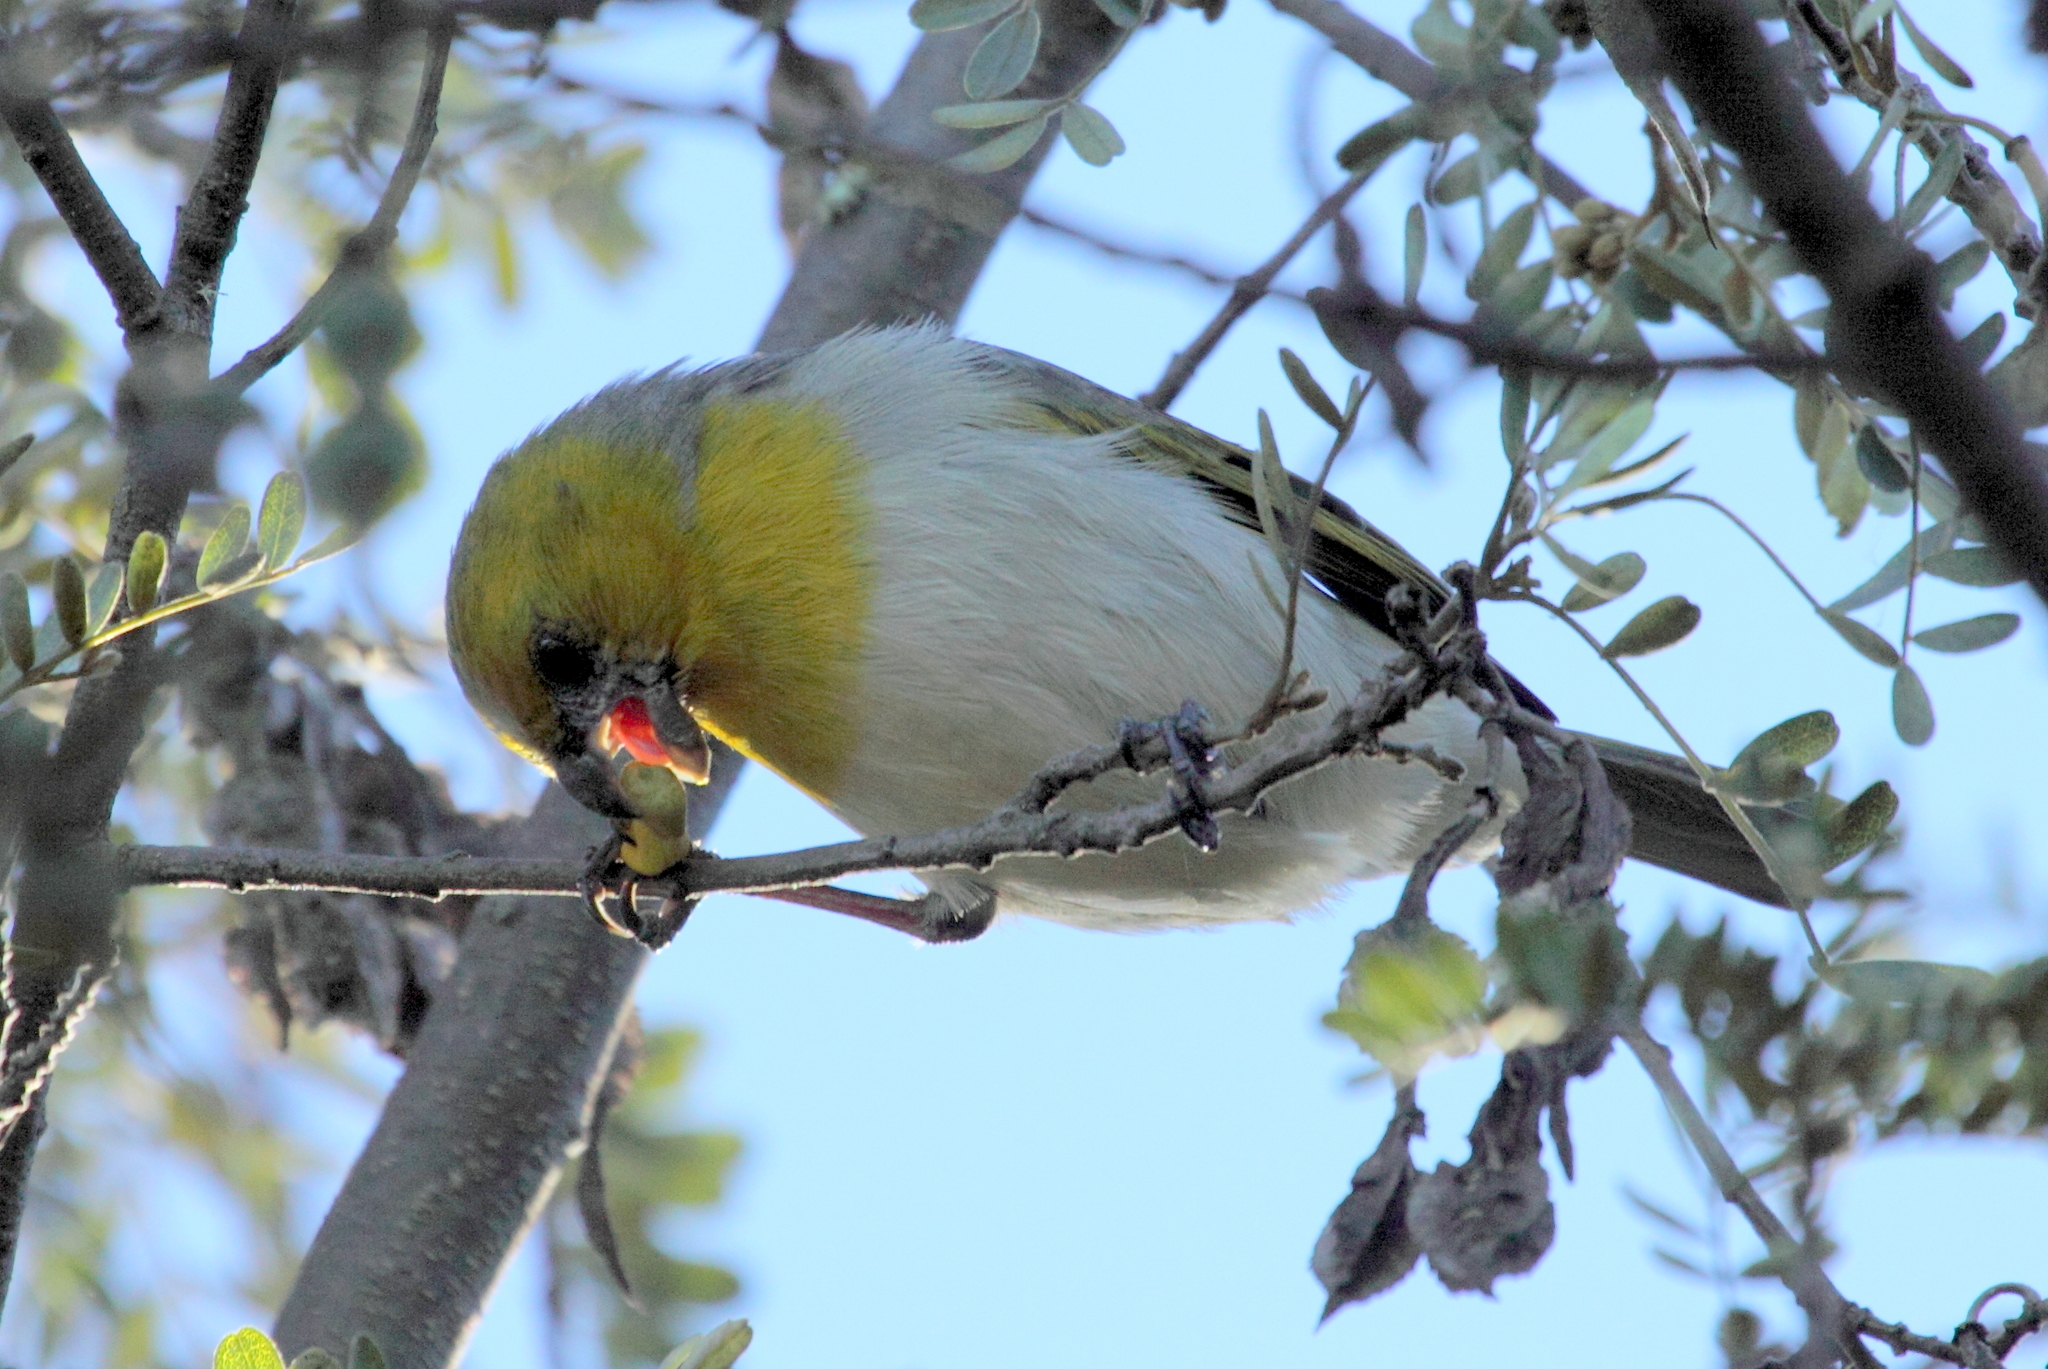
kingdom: Plantae
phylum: Tracheophyta
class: Magnoliopsida
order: Fabales
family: Fabaceae
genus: Sophora
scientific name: Sophora chrysophylla
